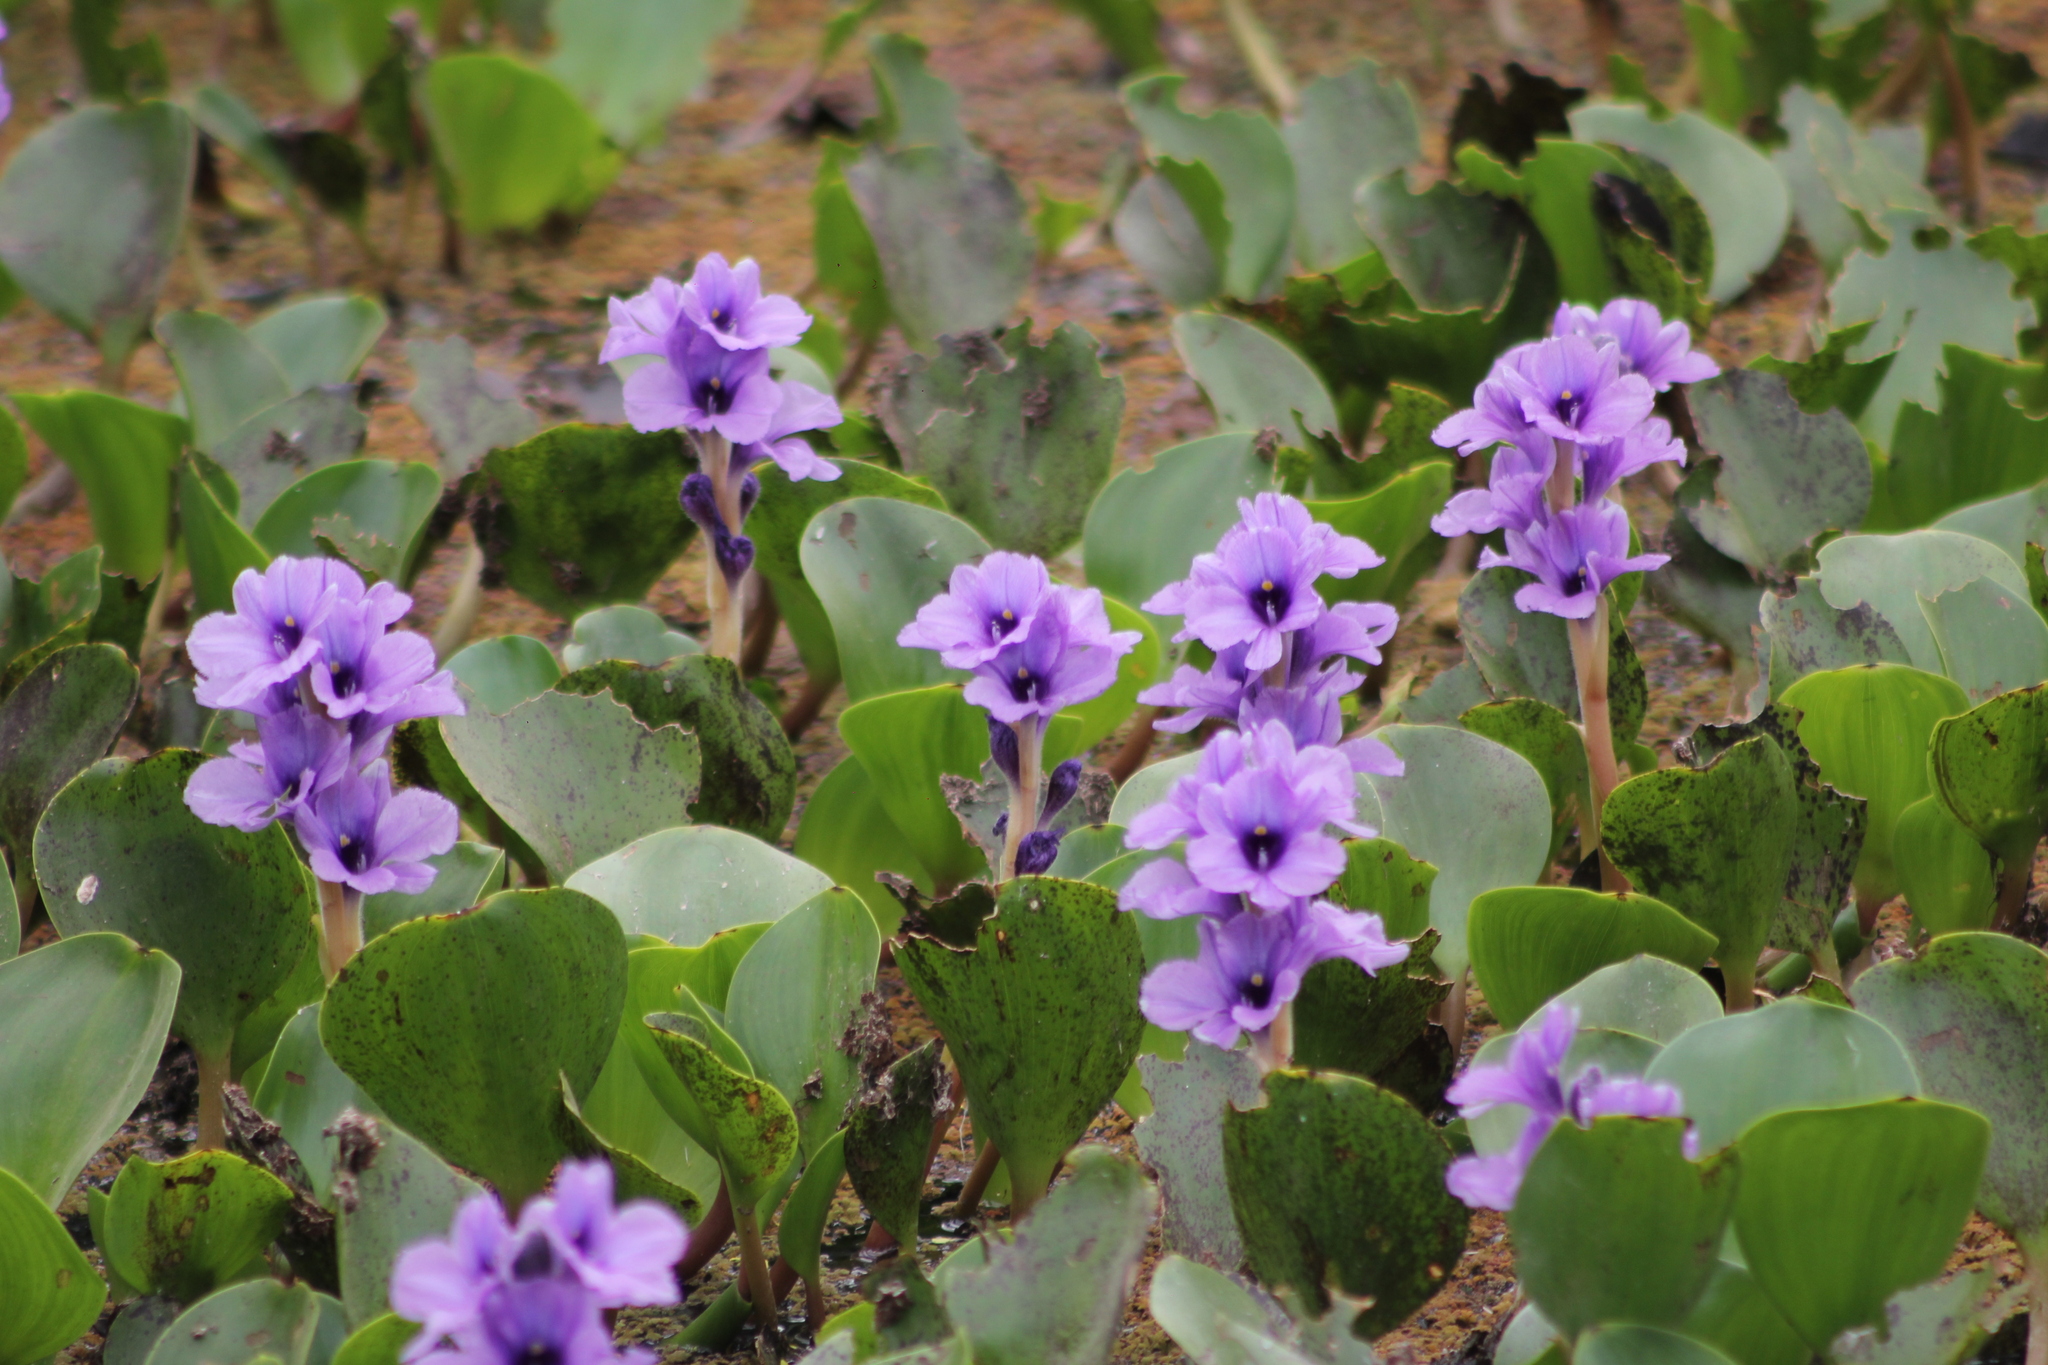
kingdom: Plantae
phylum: Tracheophyta
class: Liliopsida
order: Commelinales
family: Pontederiaceae
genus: Pontederia
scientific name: Pontederia azurea
